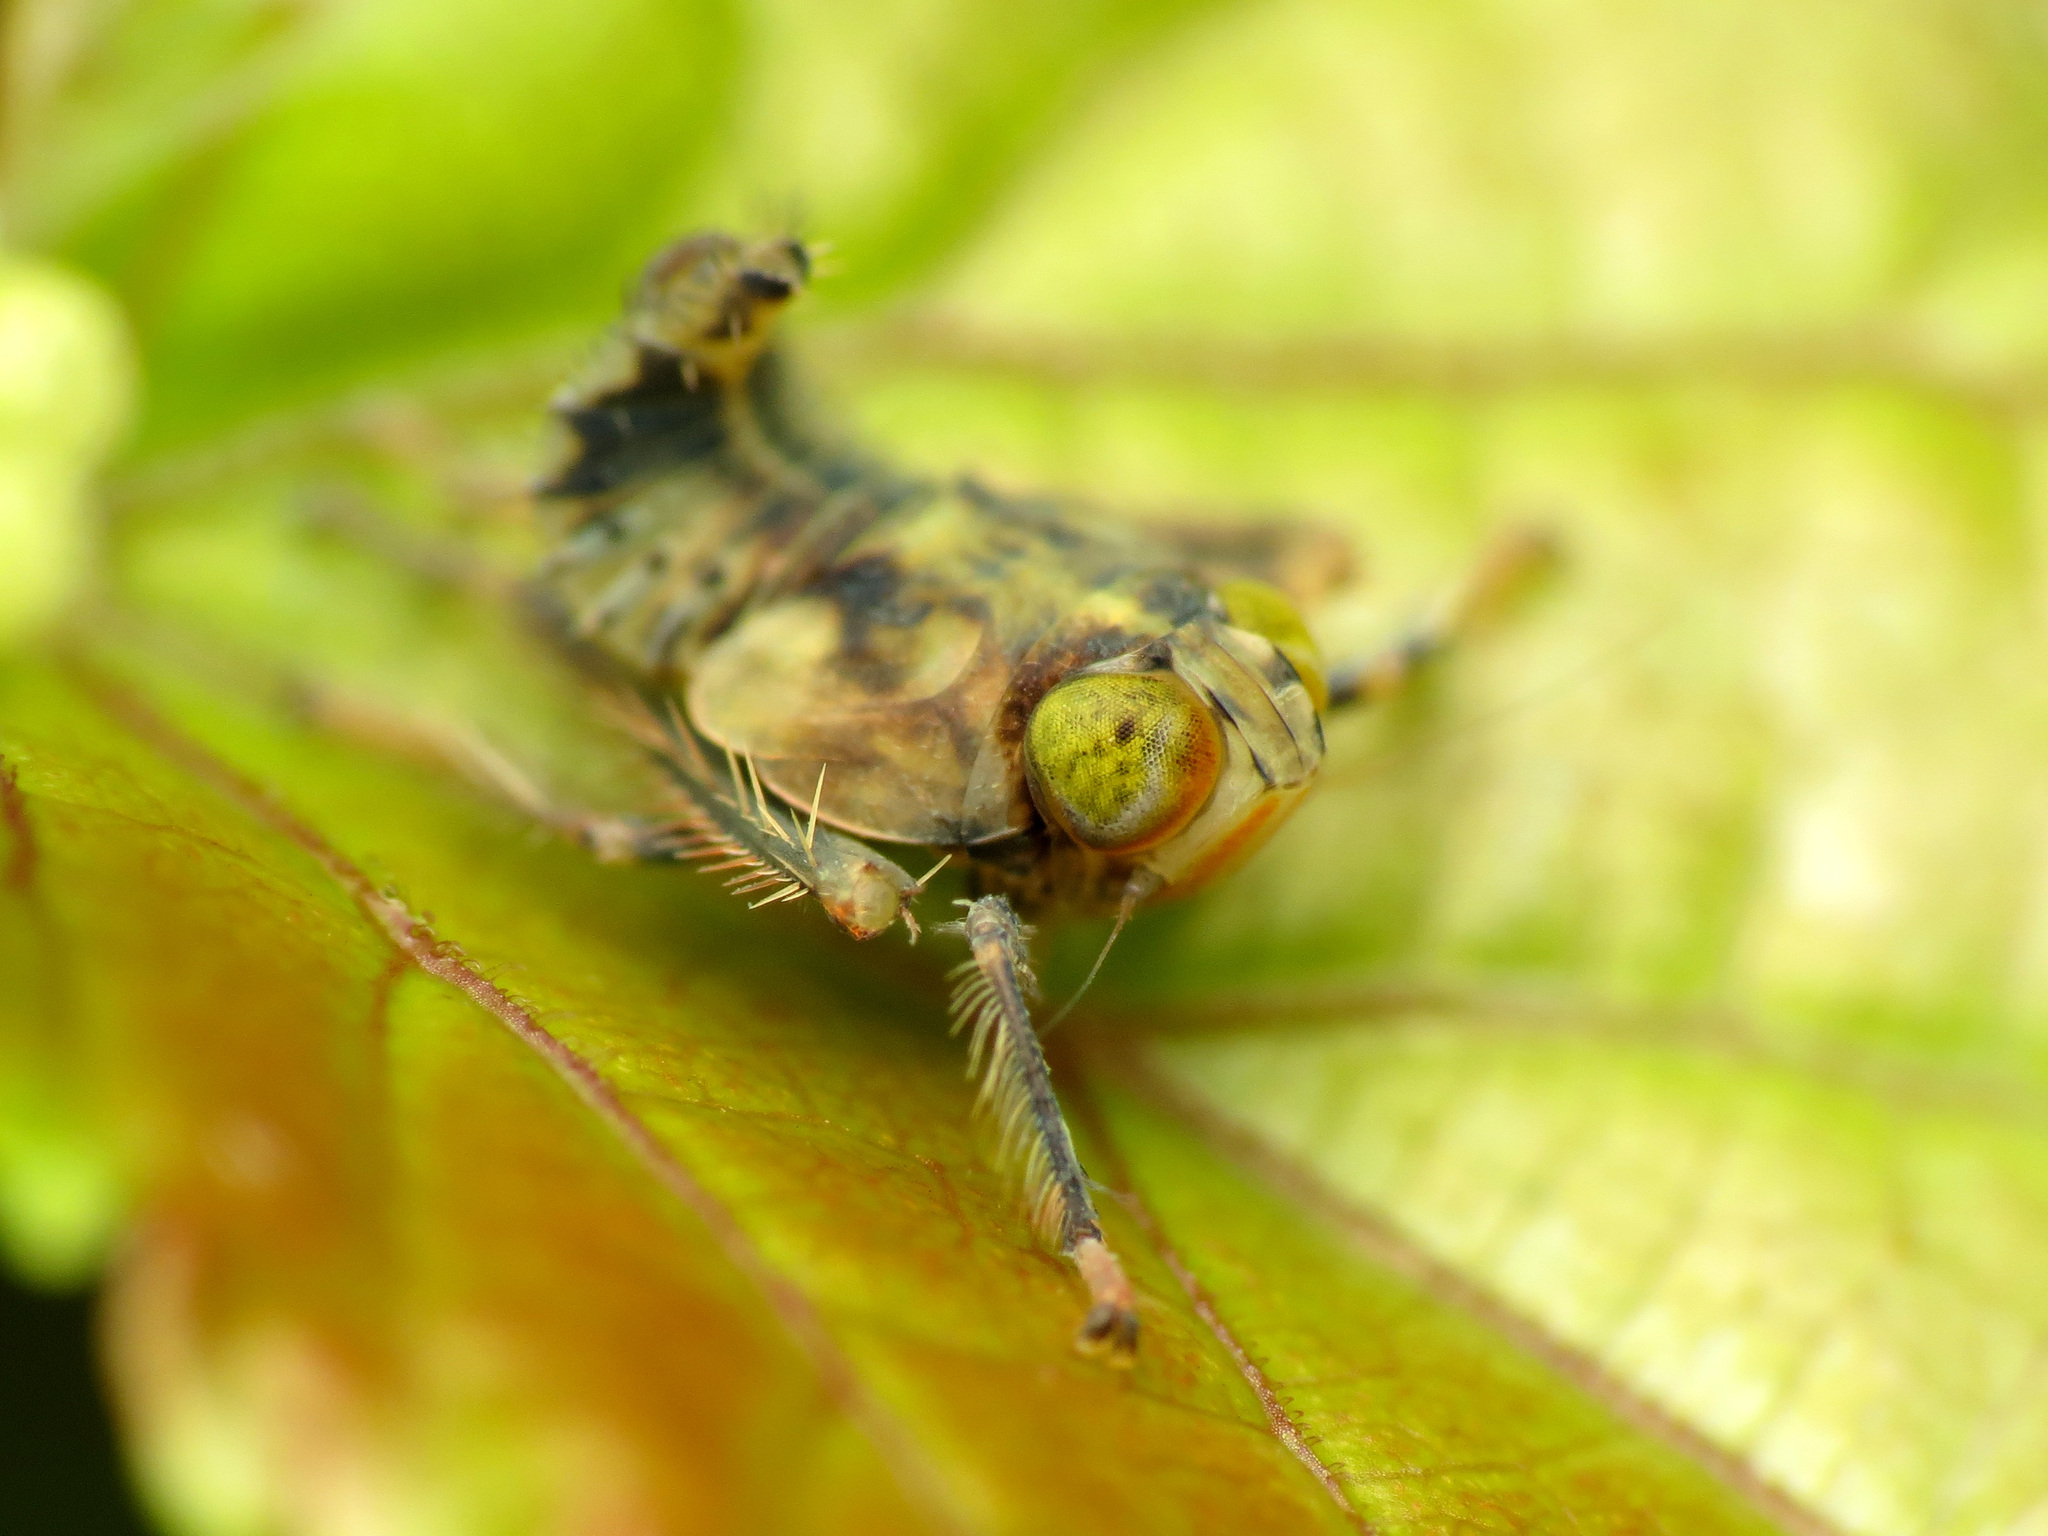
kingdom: Animalia
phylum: Arthropoda
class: Insecta
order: Hemiptera
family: Cicadellidae
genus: Jikradia
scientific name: Jikradia olitoria
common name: Coppery leafhopper
